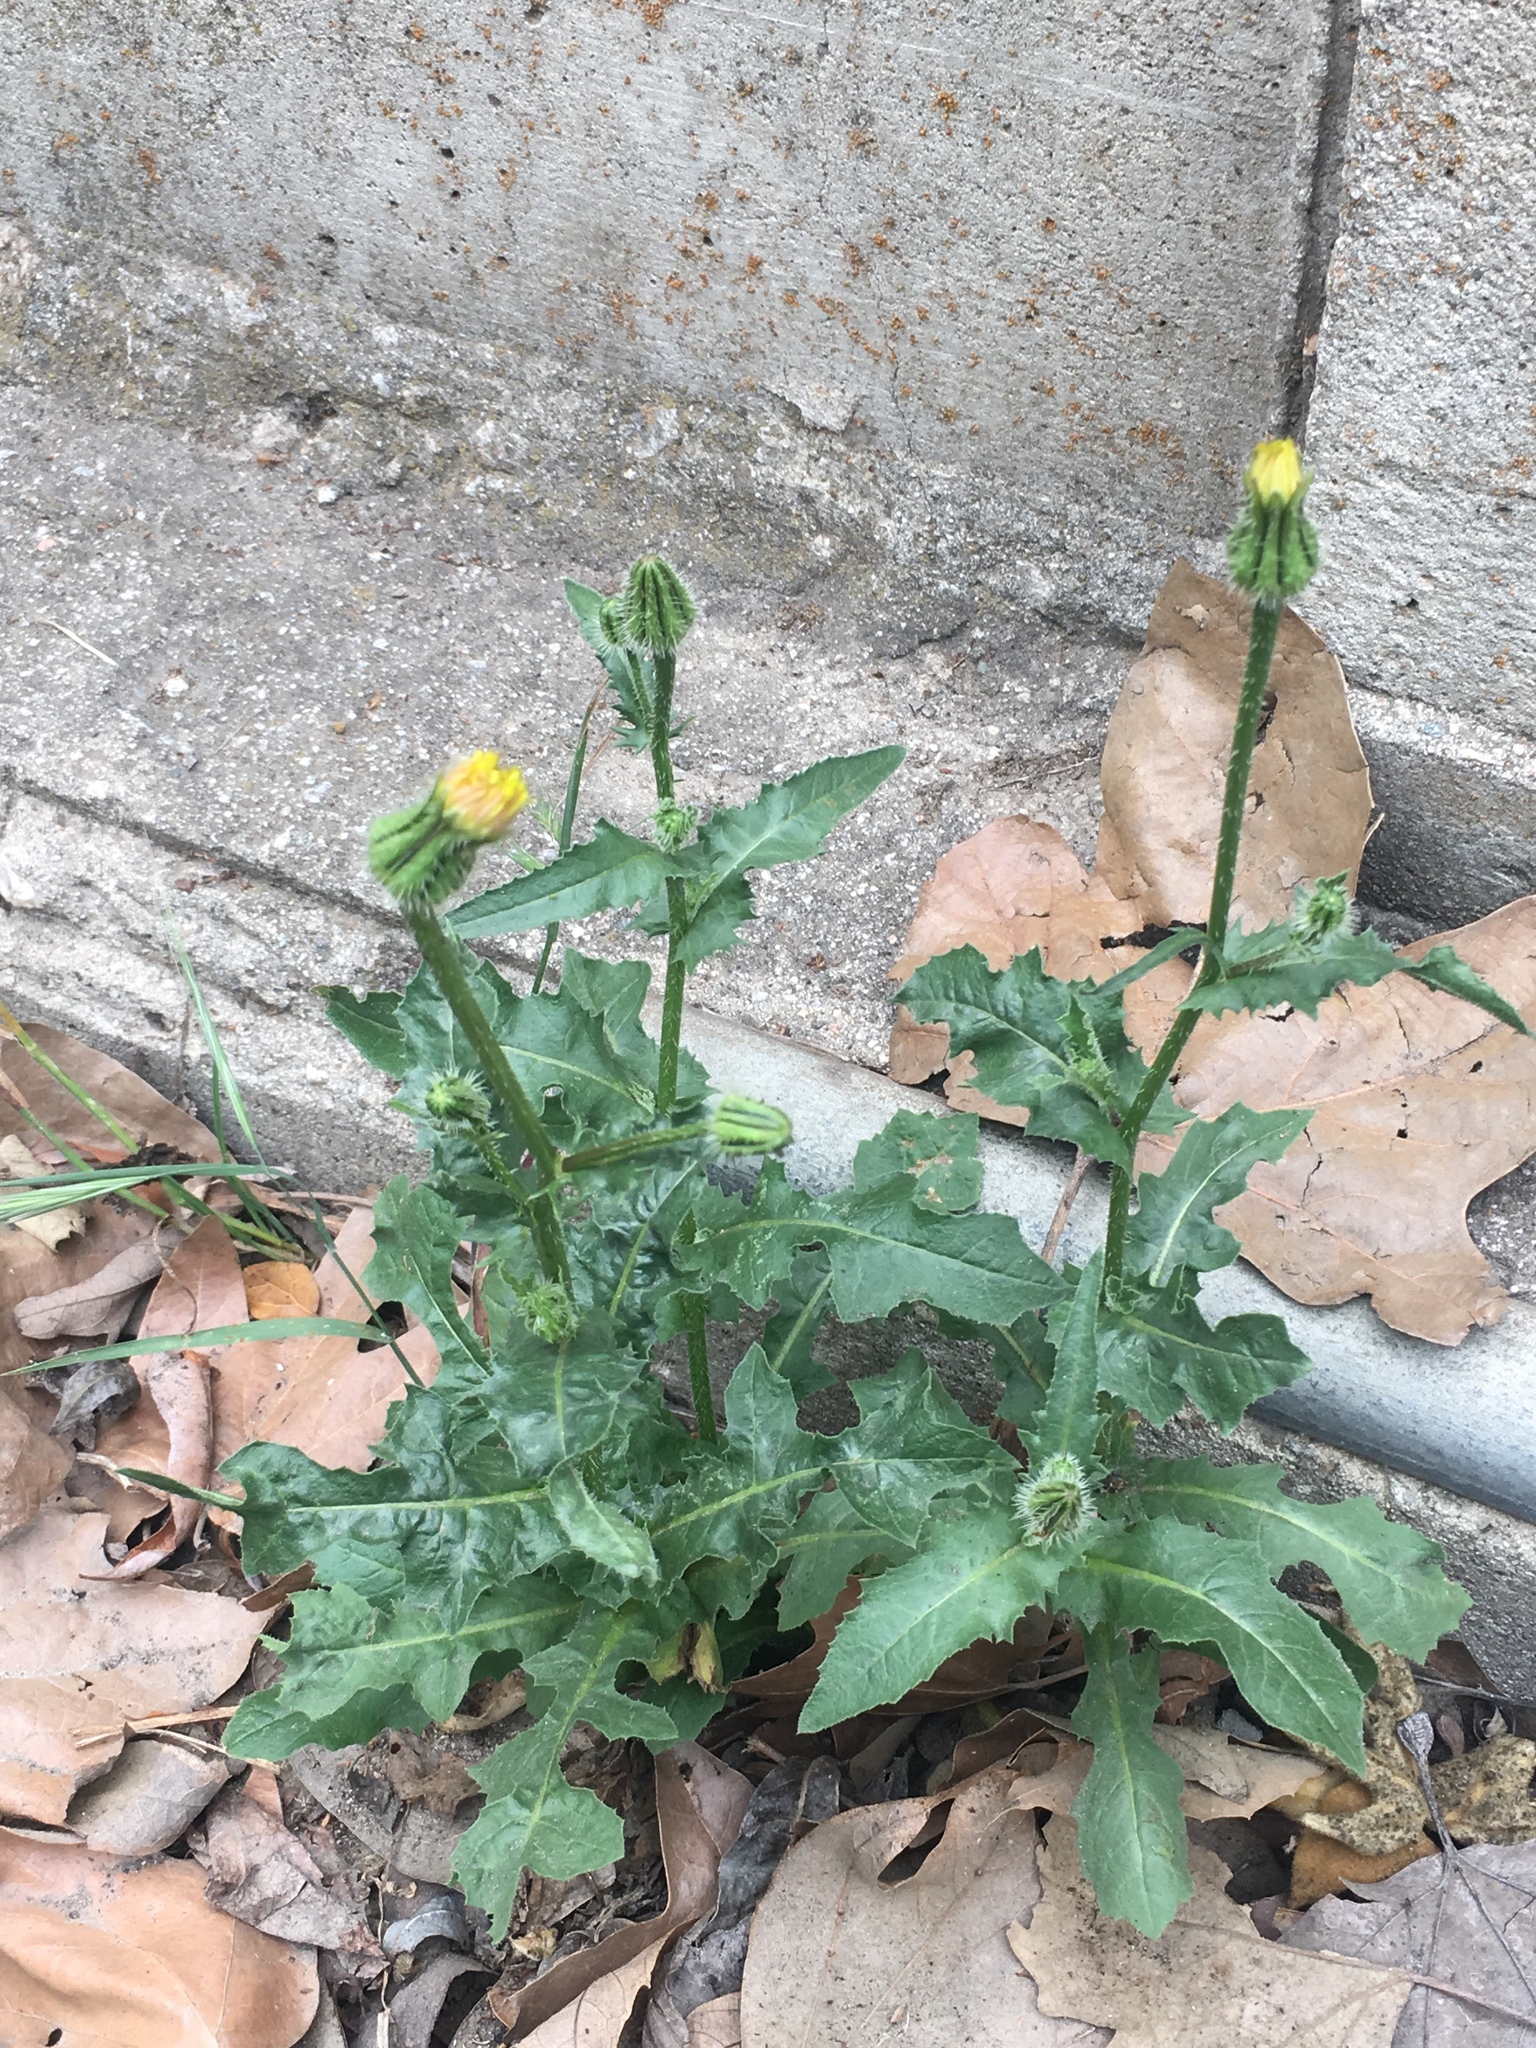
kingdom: Plantae
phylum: Tracheophyta
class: Magnoliopsida
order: Asterales
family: Asteraceae
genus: Urospermum
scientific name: Urospermum picroides
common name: False hawkbit
